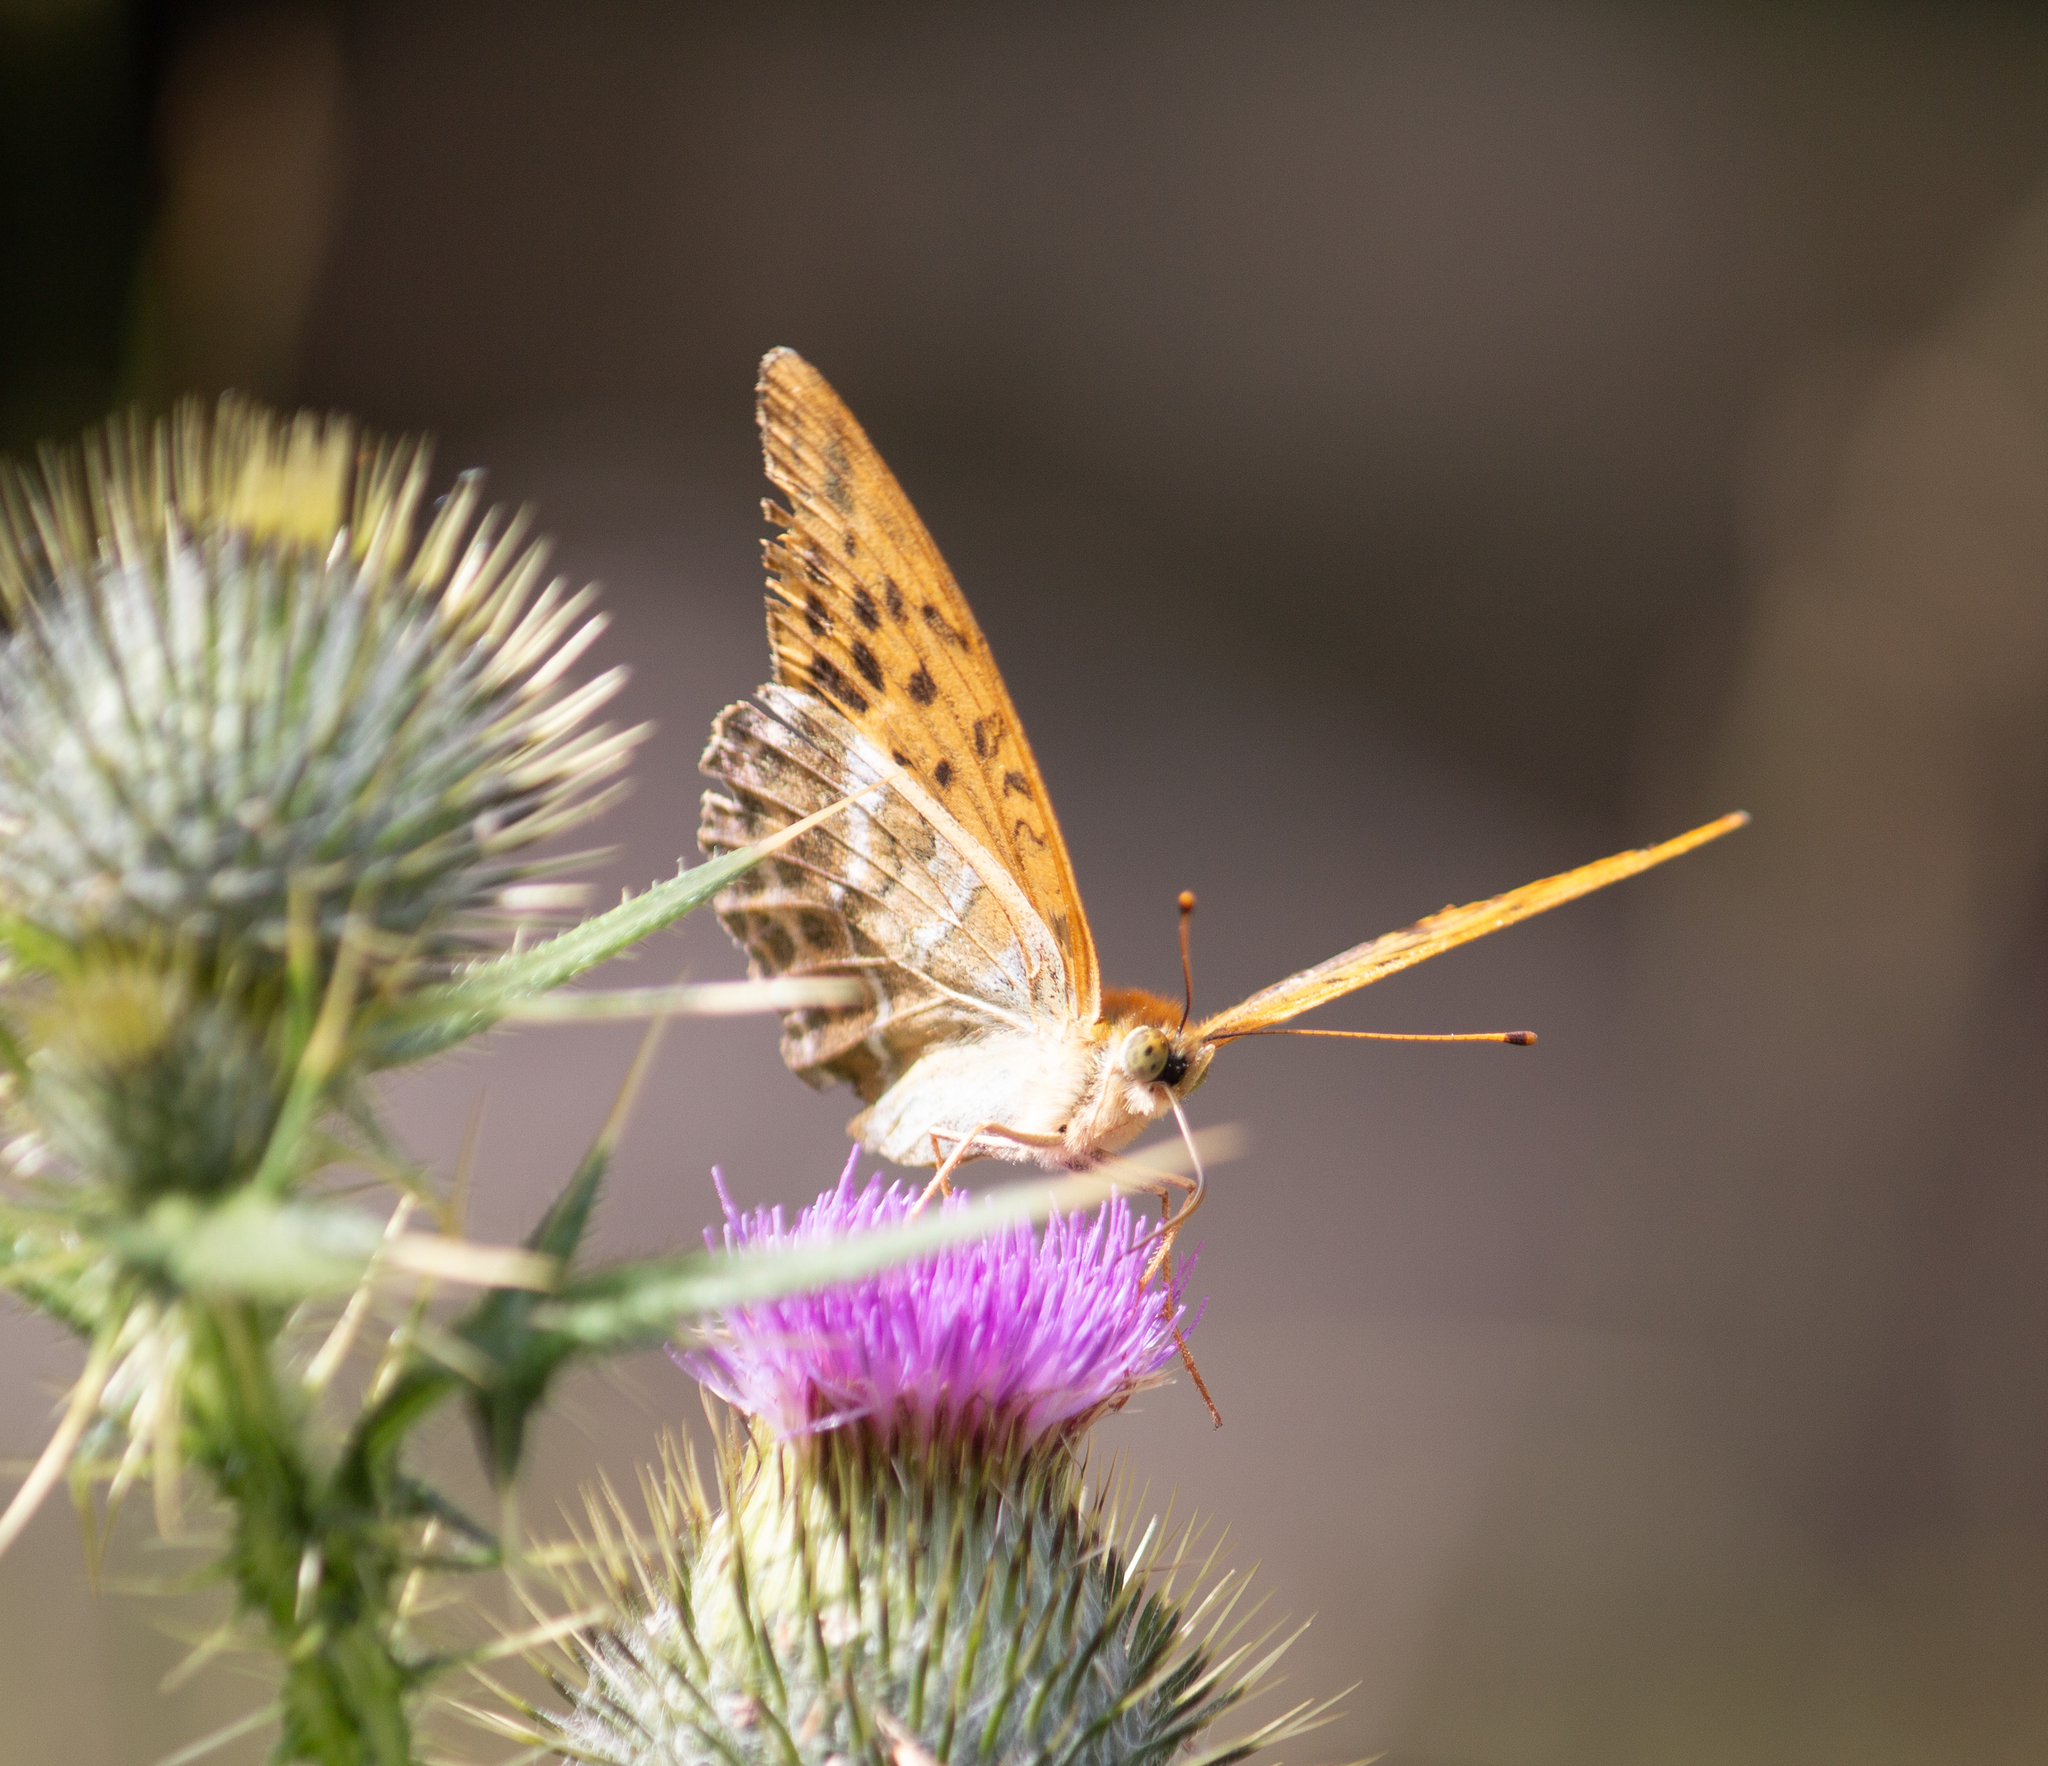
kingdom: Animalia
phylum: Arthropoda
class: Insecta
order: Lepidoptera
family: Nymphalidae
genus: Argynnis
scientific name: Argynnis paphia
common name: Silver-washed fritillary
